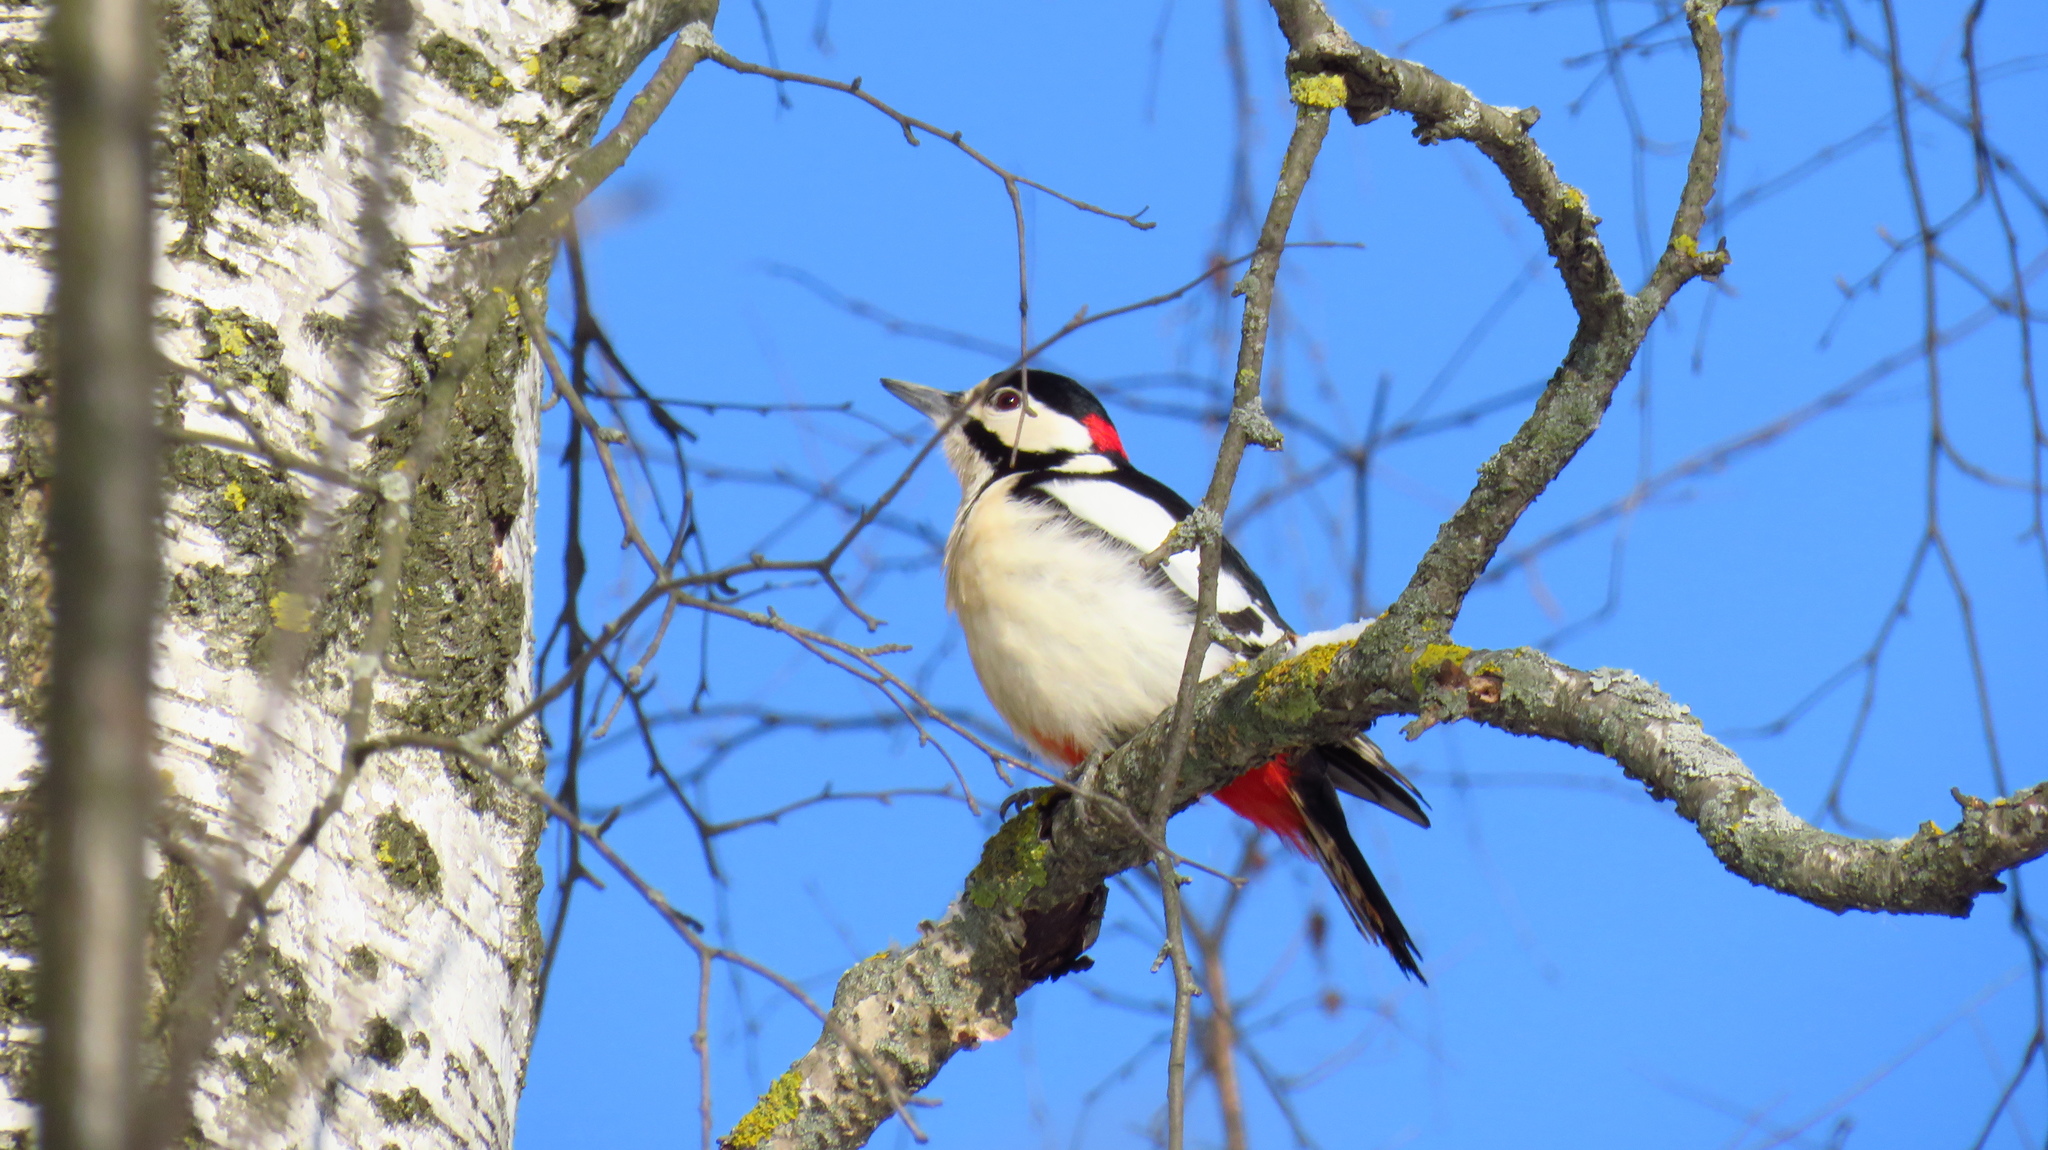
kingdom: Animalia
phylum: Chordata
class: Aves
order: Piciformes
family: Picidae
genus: Dendrocopos
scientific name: Dendrocopos major
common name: Great spotted woodpecker
